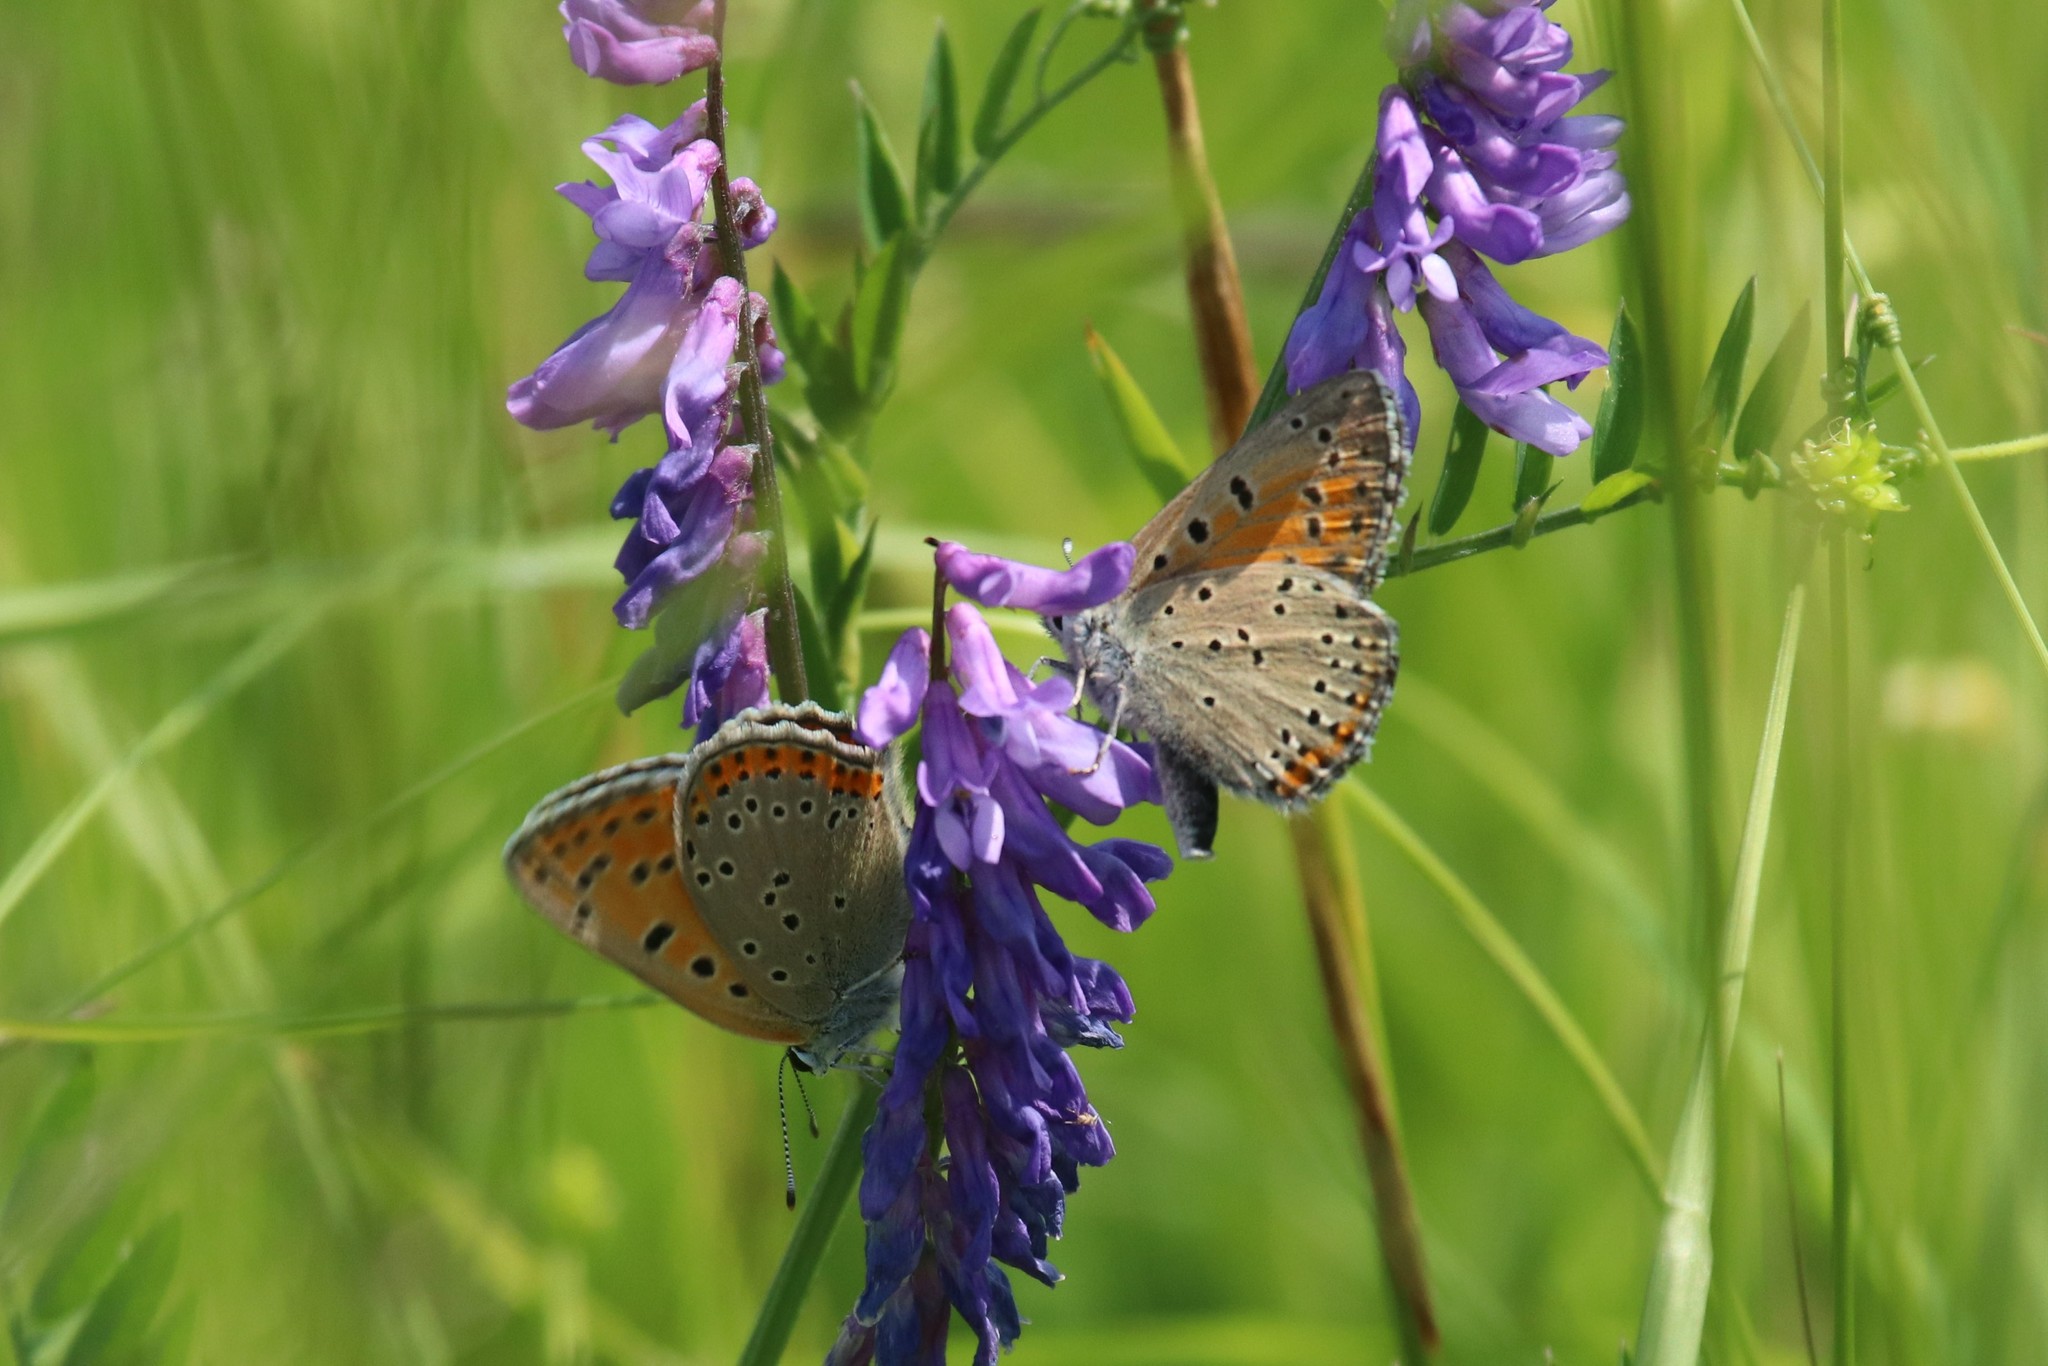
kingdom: Animalia
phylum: Arthropoda
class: Insecta
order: Lepidoptera
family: Lycaenidae
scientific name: Lycaenidae
